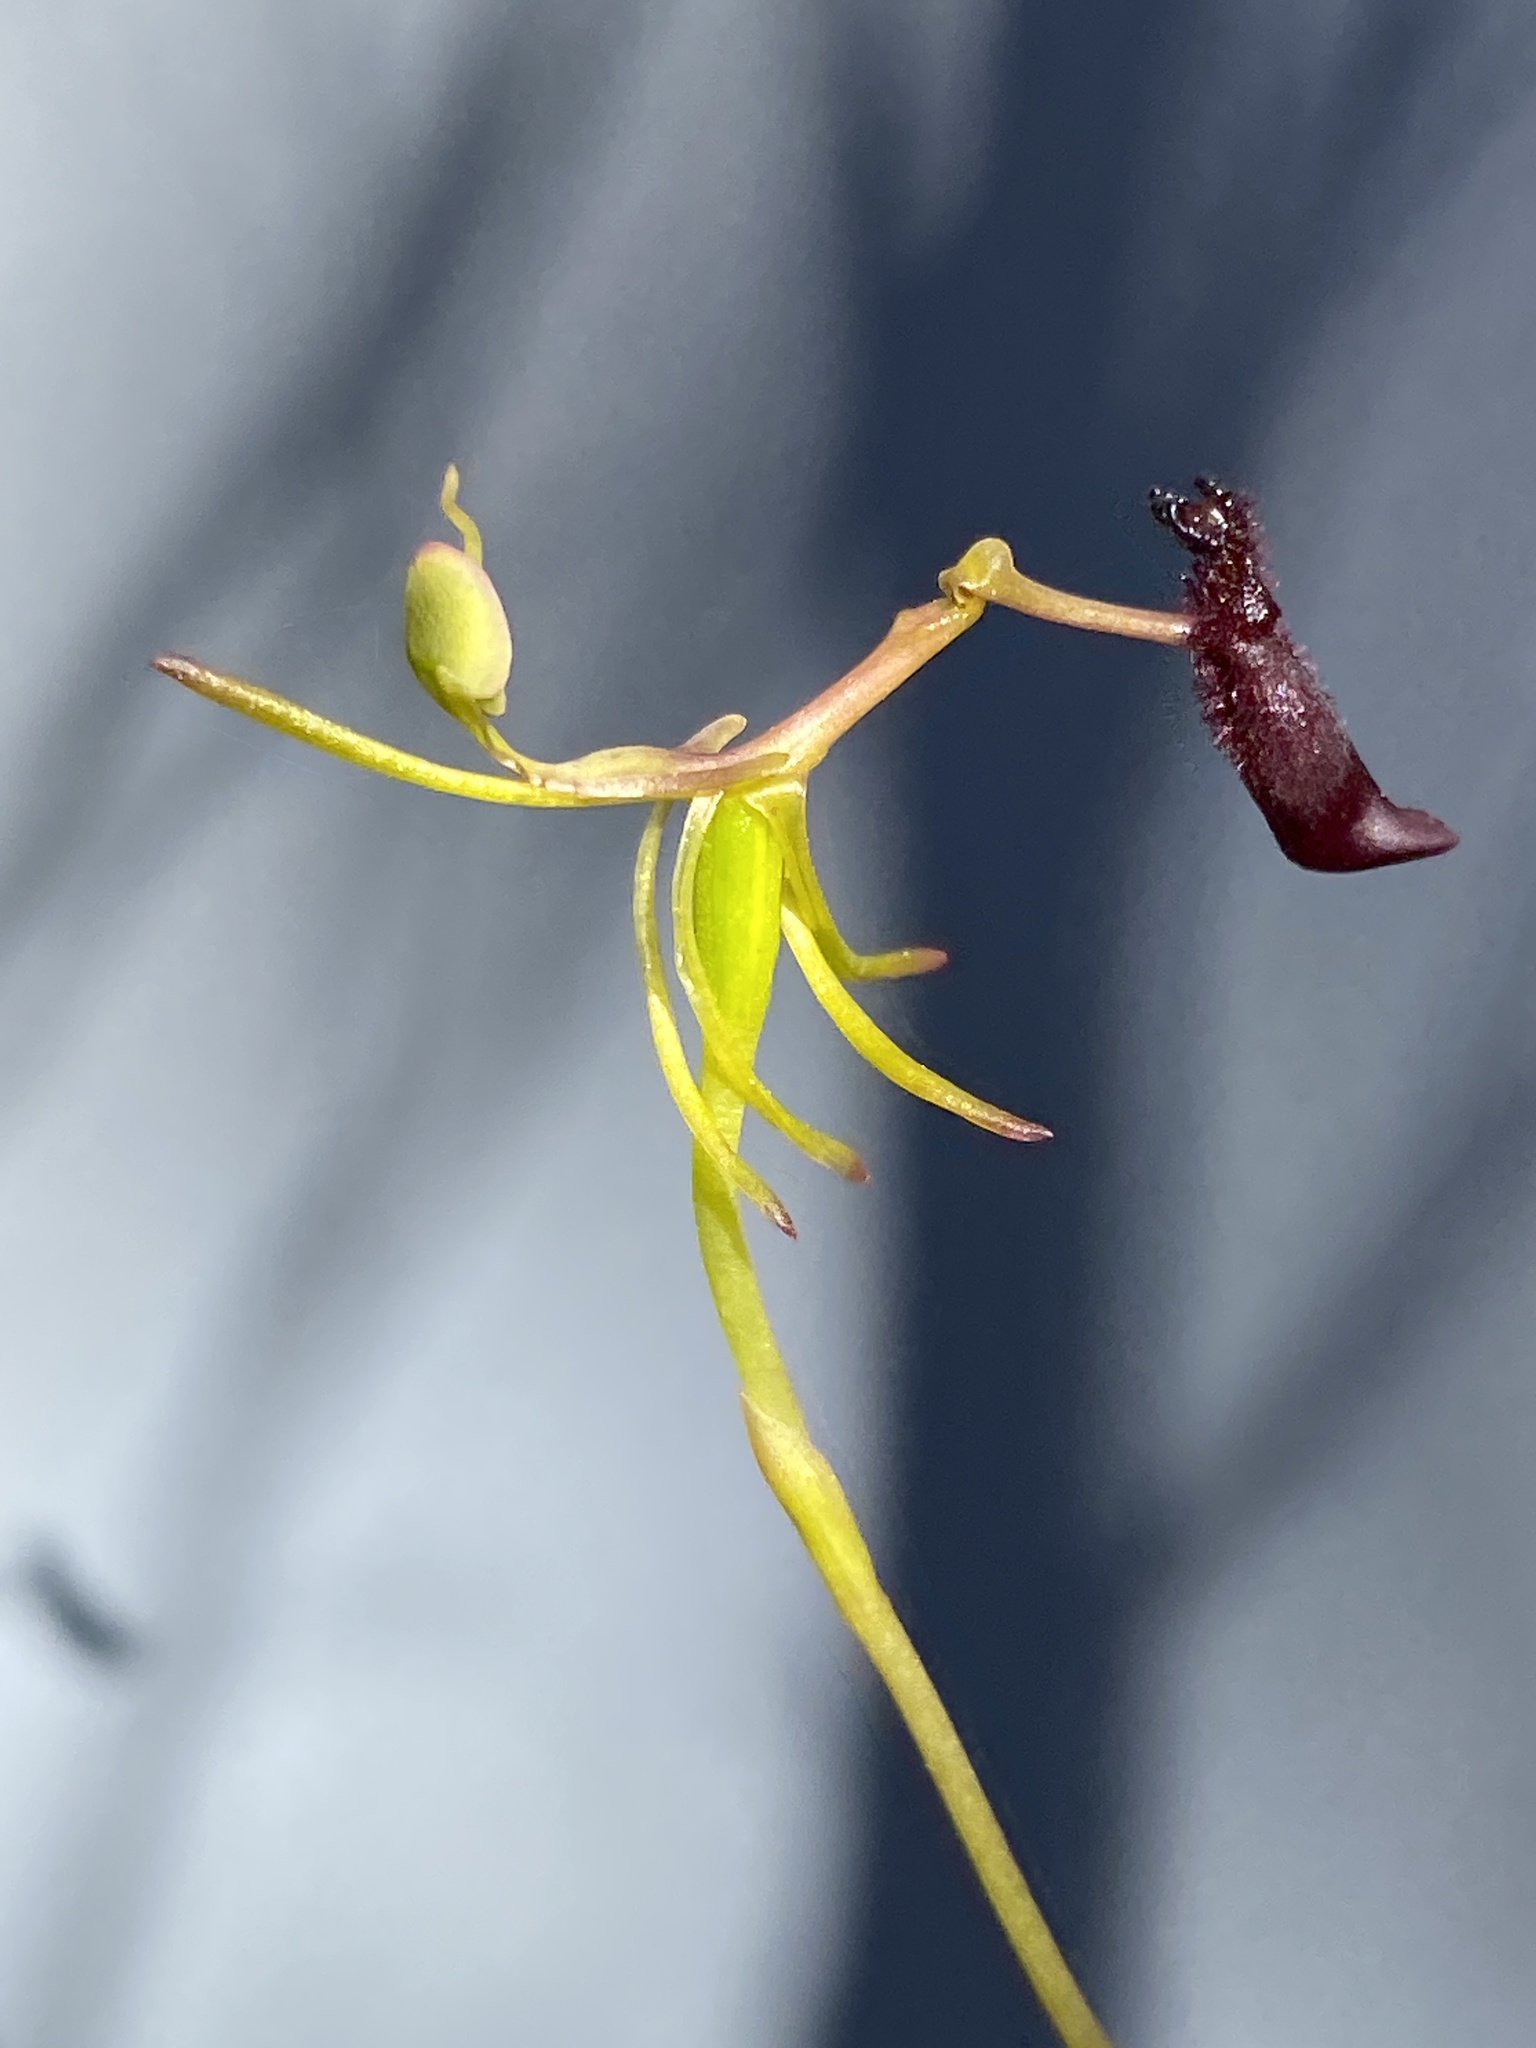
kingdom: Plantae
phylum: Tracheophyta
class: Liliopsida
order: Asparagales
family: Orchidaceae
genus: Drakaea
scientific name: Drakaea thynniphila
